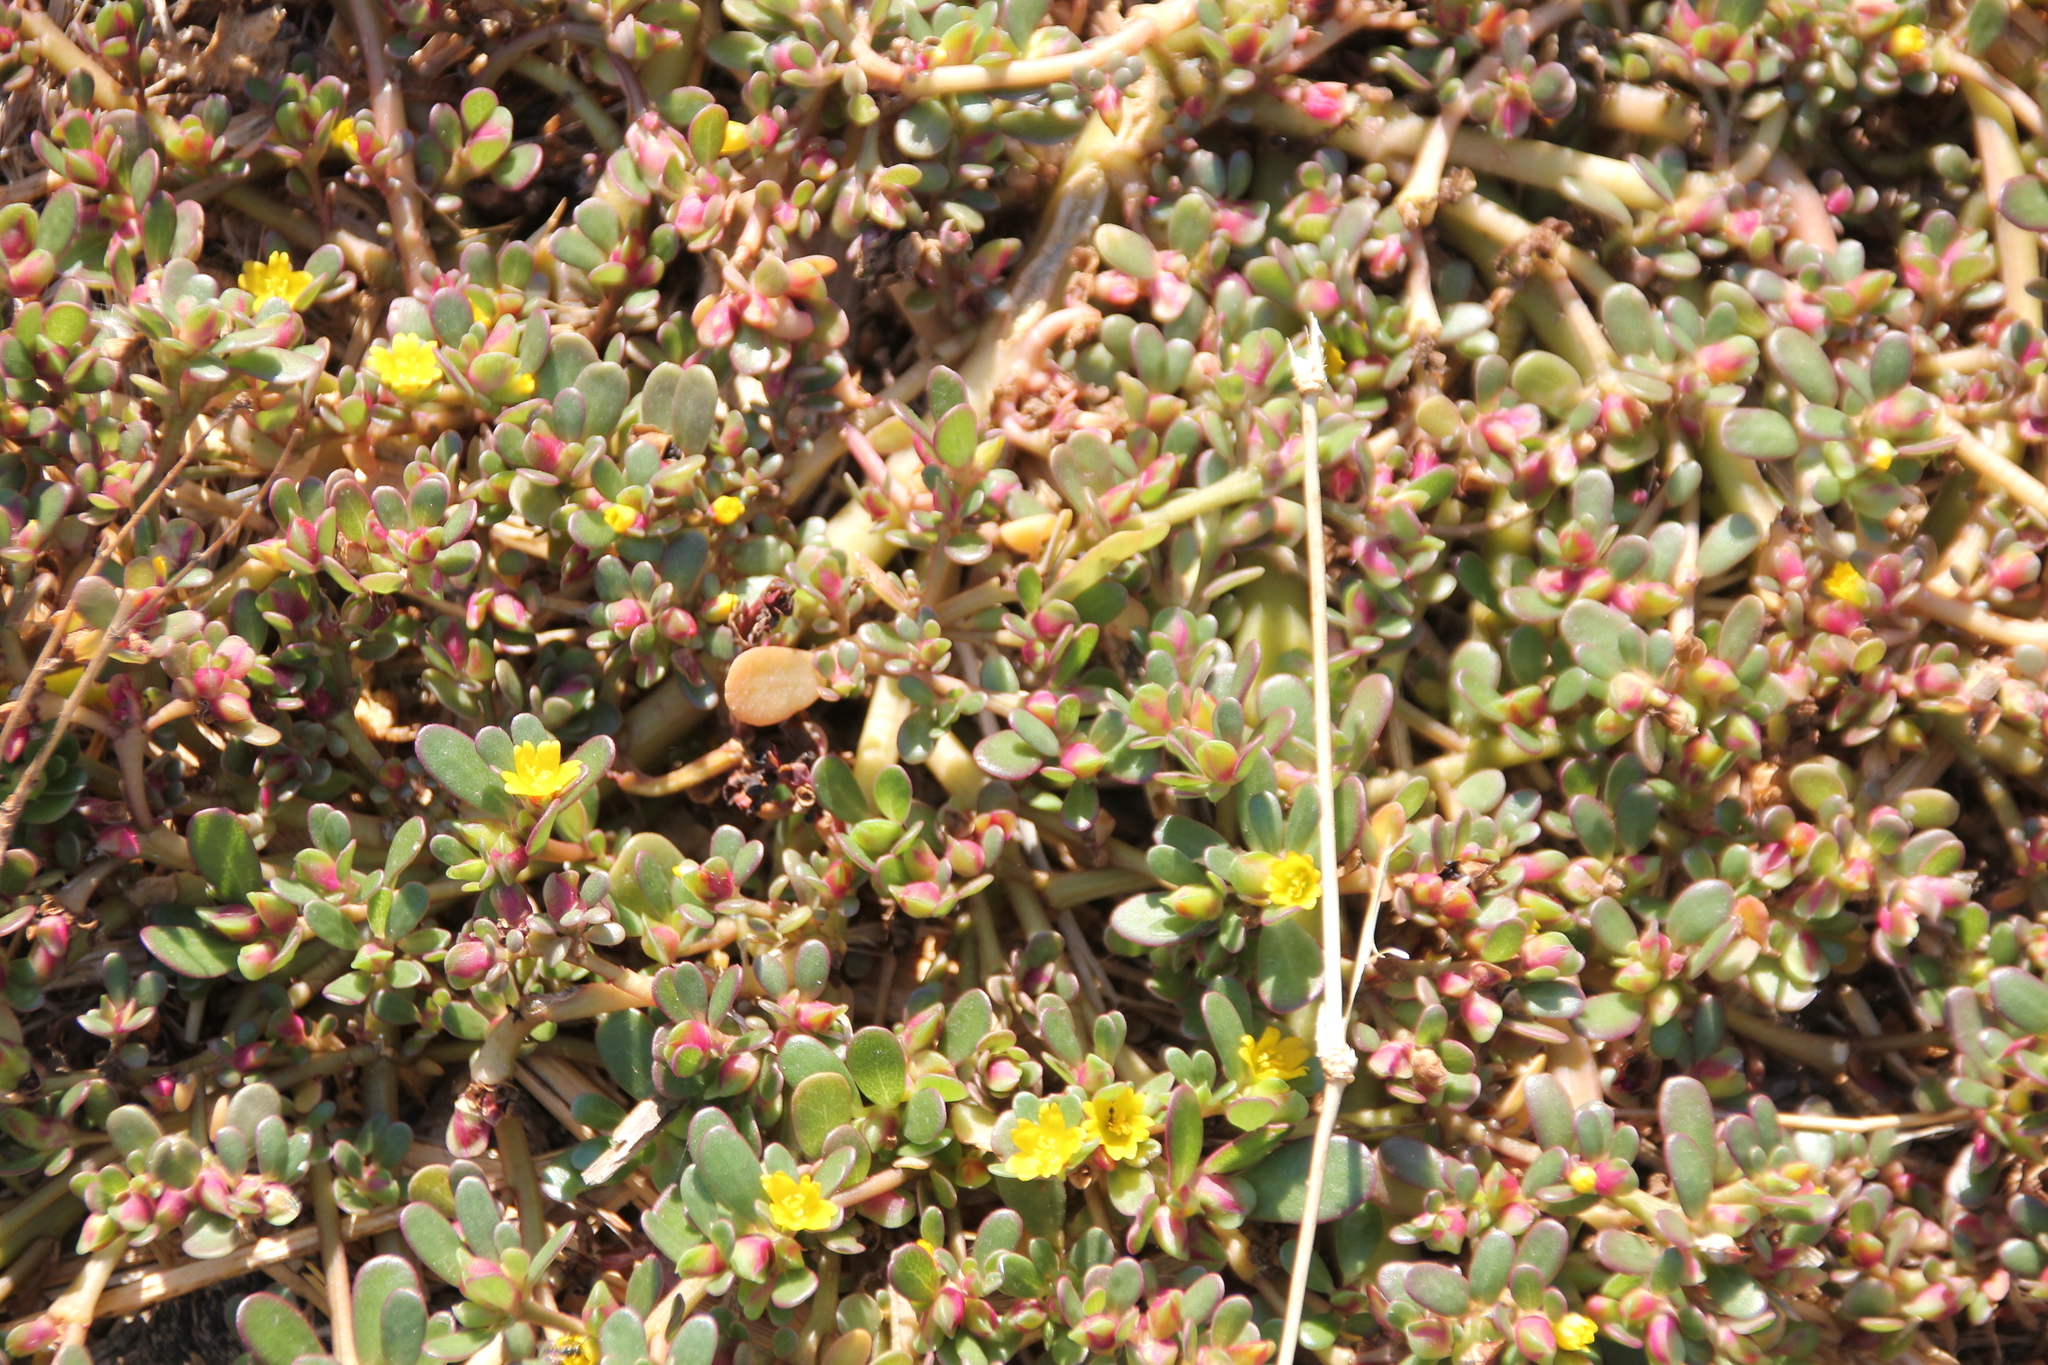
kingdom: Plantae
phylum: Tracheophyta
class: Magnoliopsida
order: Caryophyllales
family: Portulacaceae
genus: Portulaca
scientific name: Portulaca oleracea
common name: Common purslane
